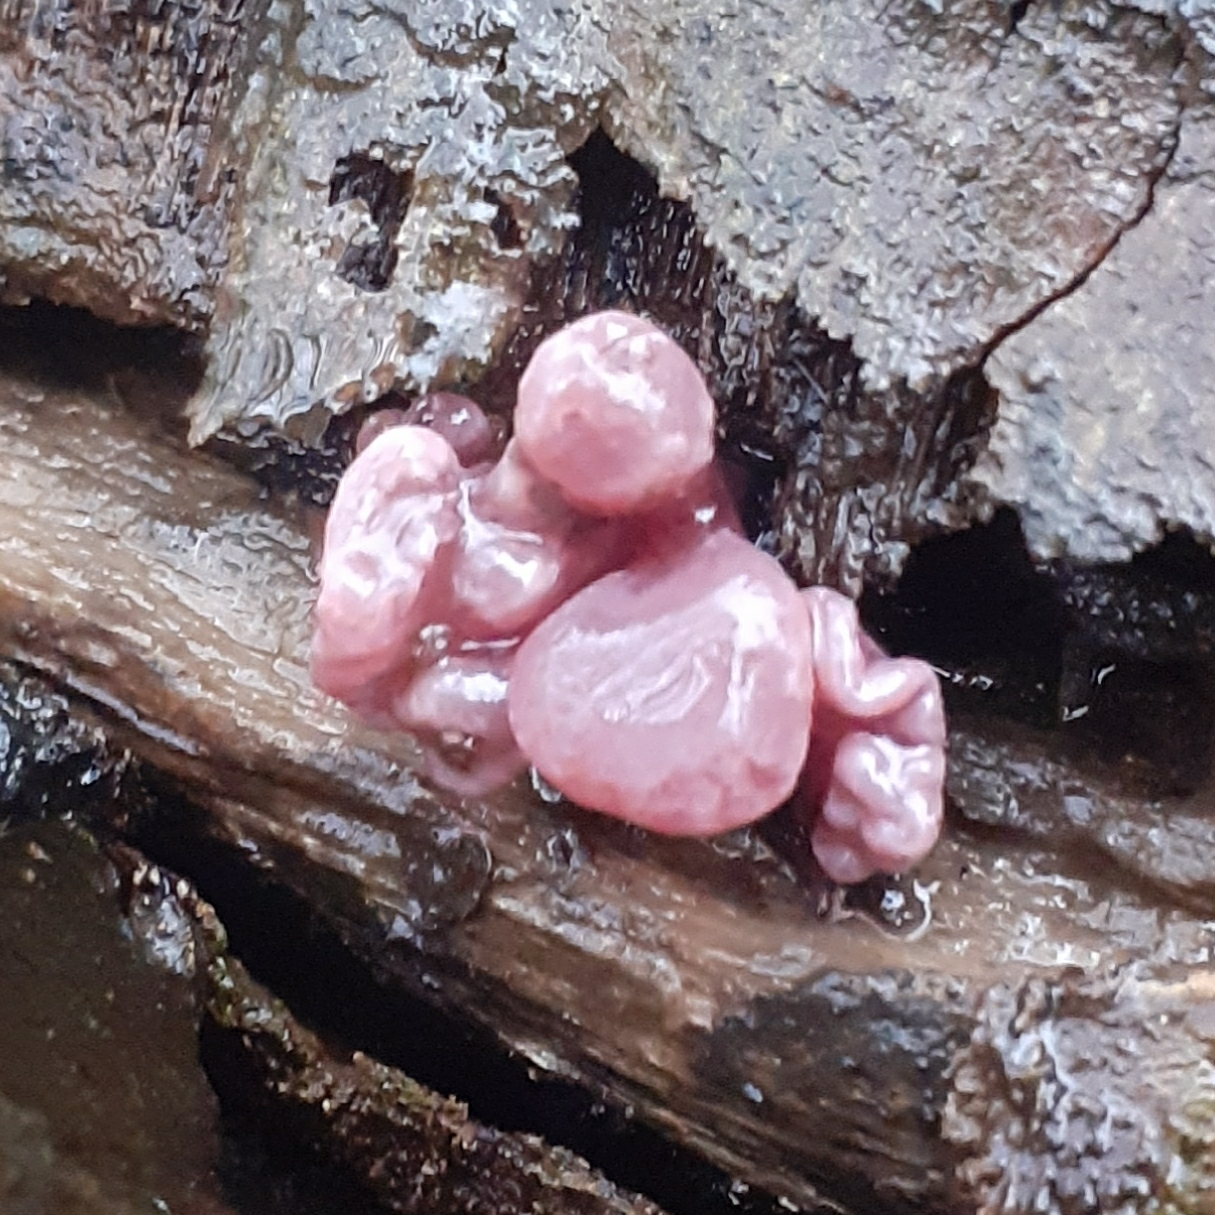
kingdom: Fungi
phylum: Ascomycota
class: Leotiomycetes
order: Helotiales
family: Gelatinodiscaceae
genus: Ascocoryne
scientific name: Ascocoryne sarcoides
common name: Purple jellydisc
